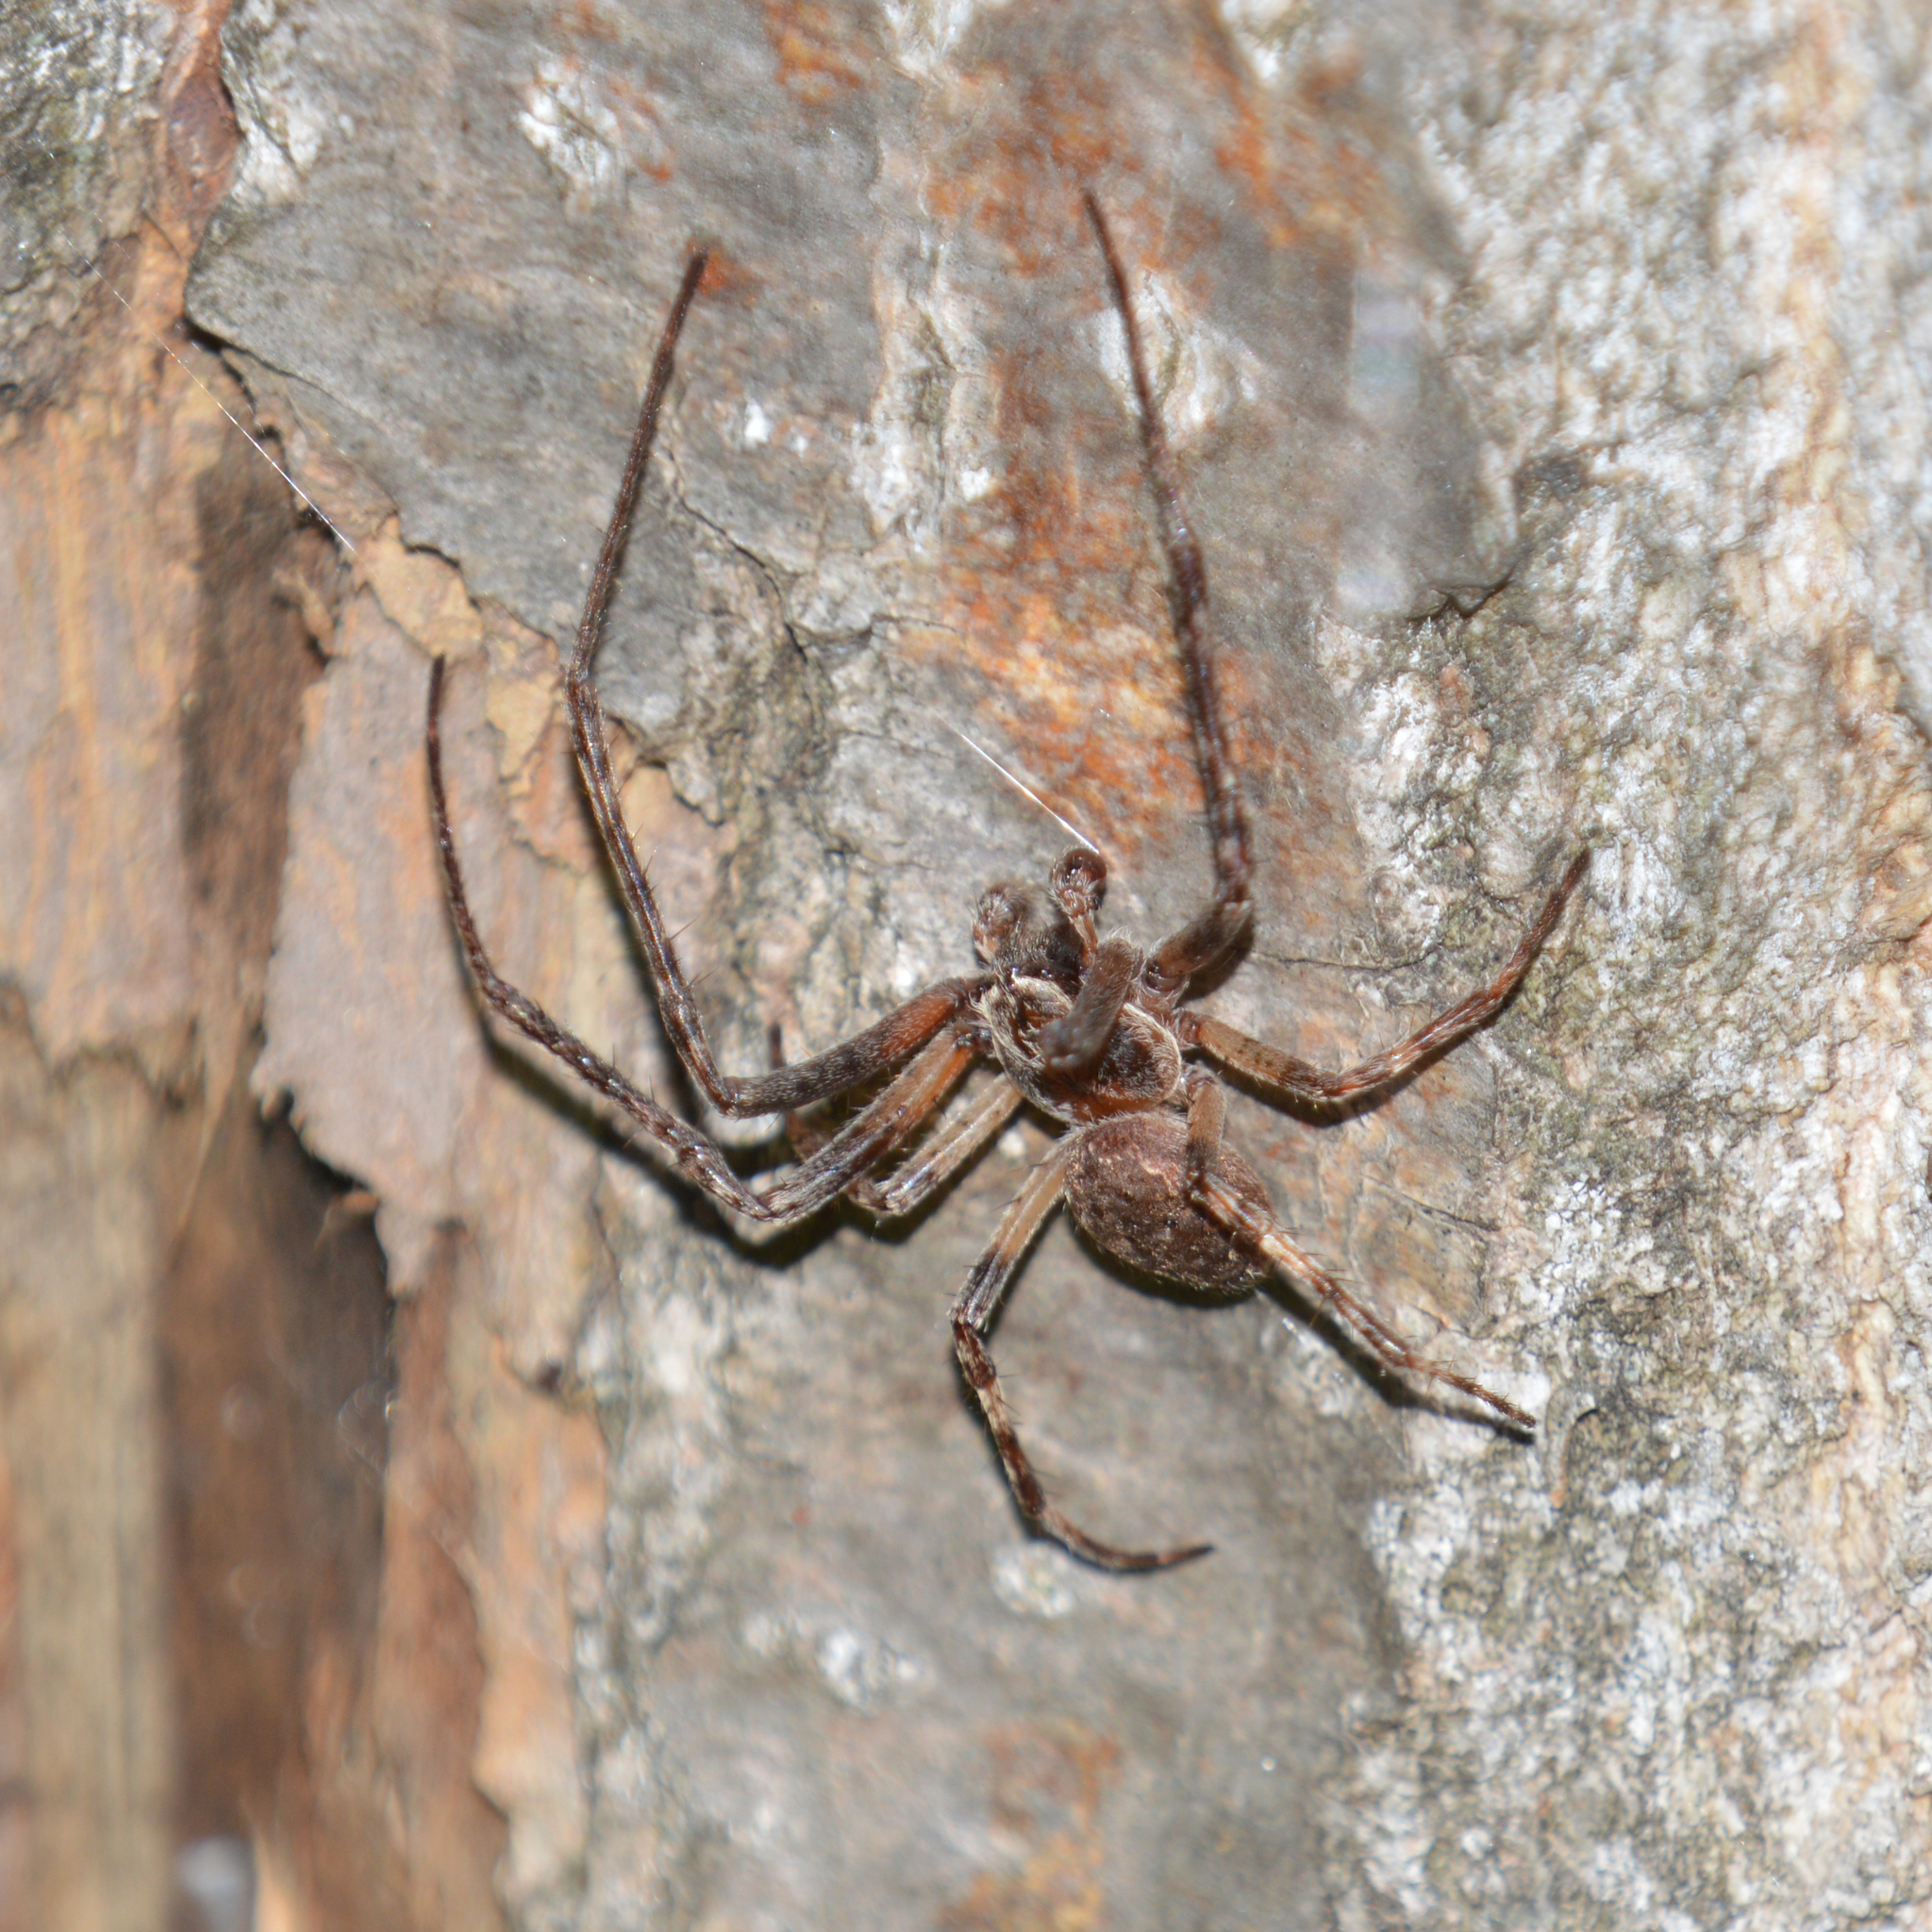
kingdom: Animalia
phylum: Arthropoda
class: Arachnida
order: Araneae
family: Araneidae
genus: Larinioides
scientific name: Larinioides
